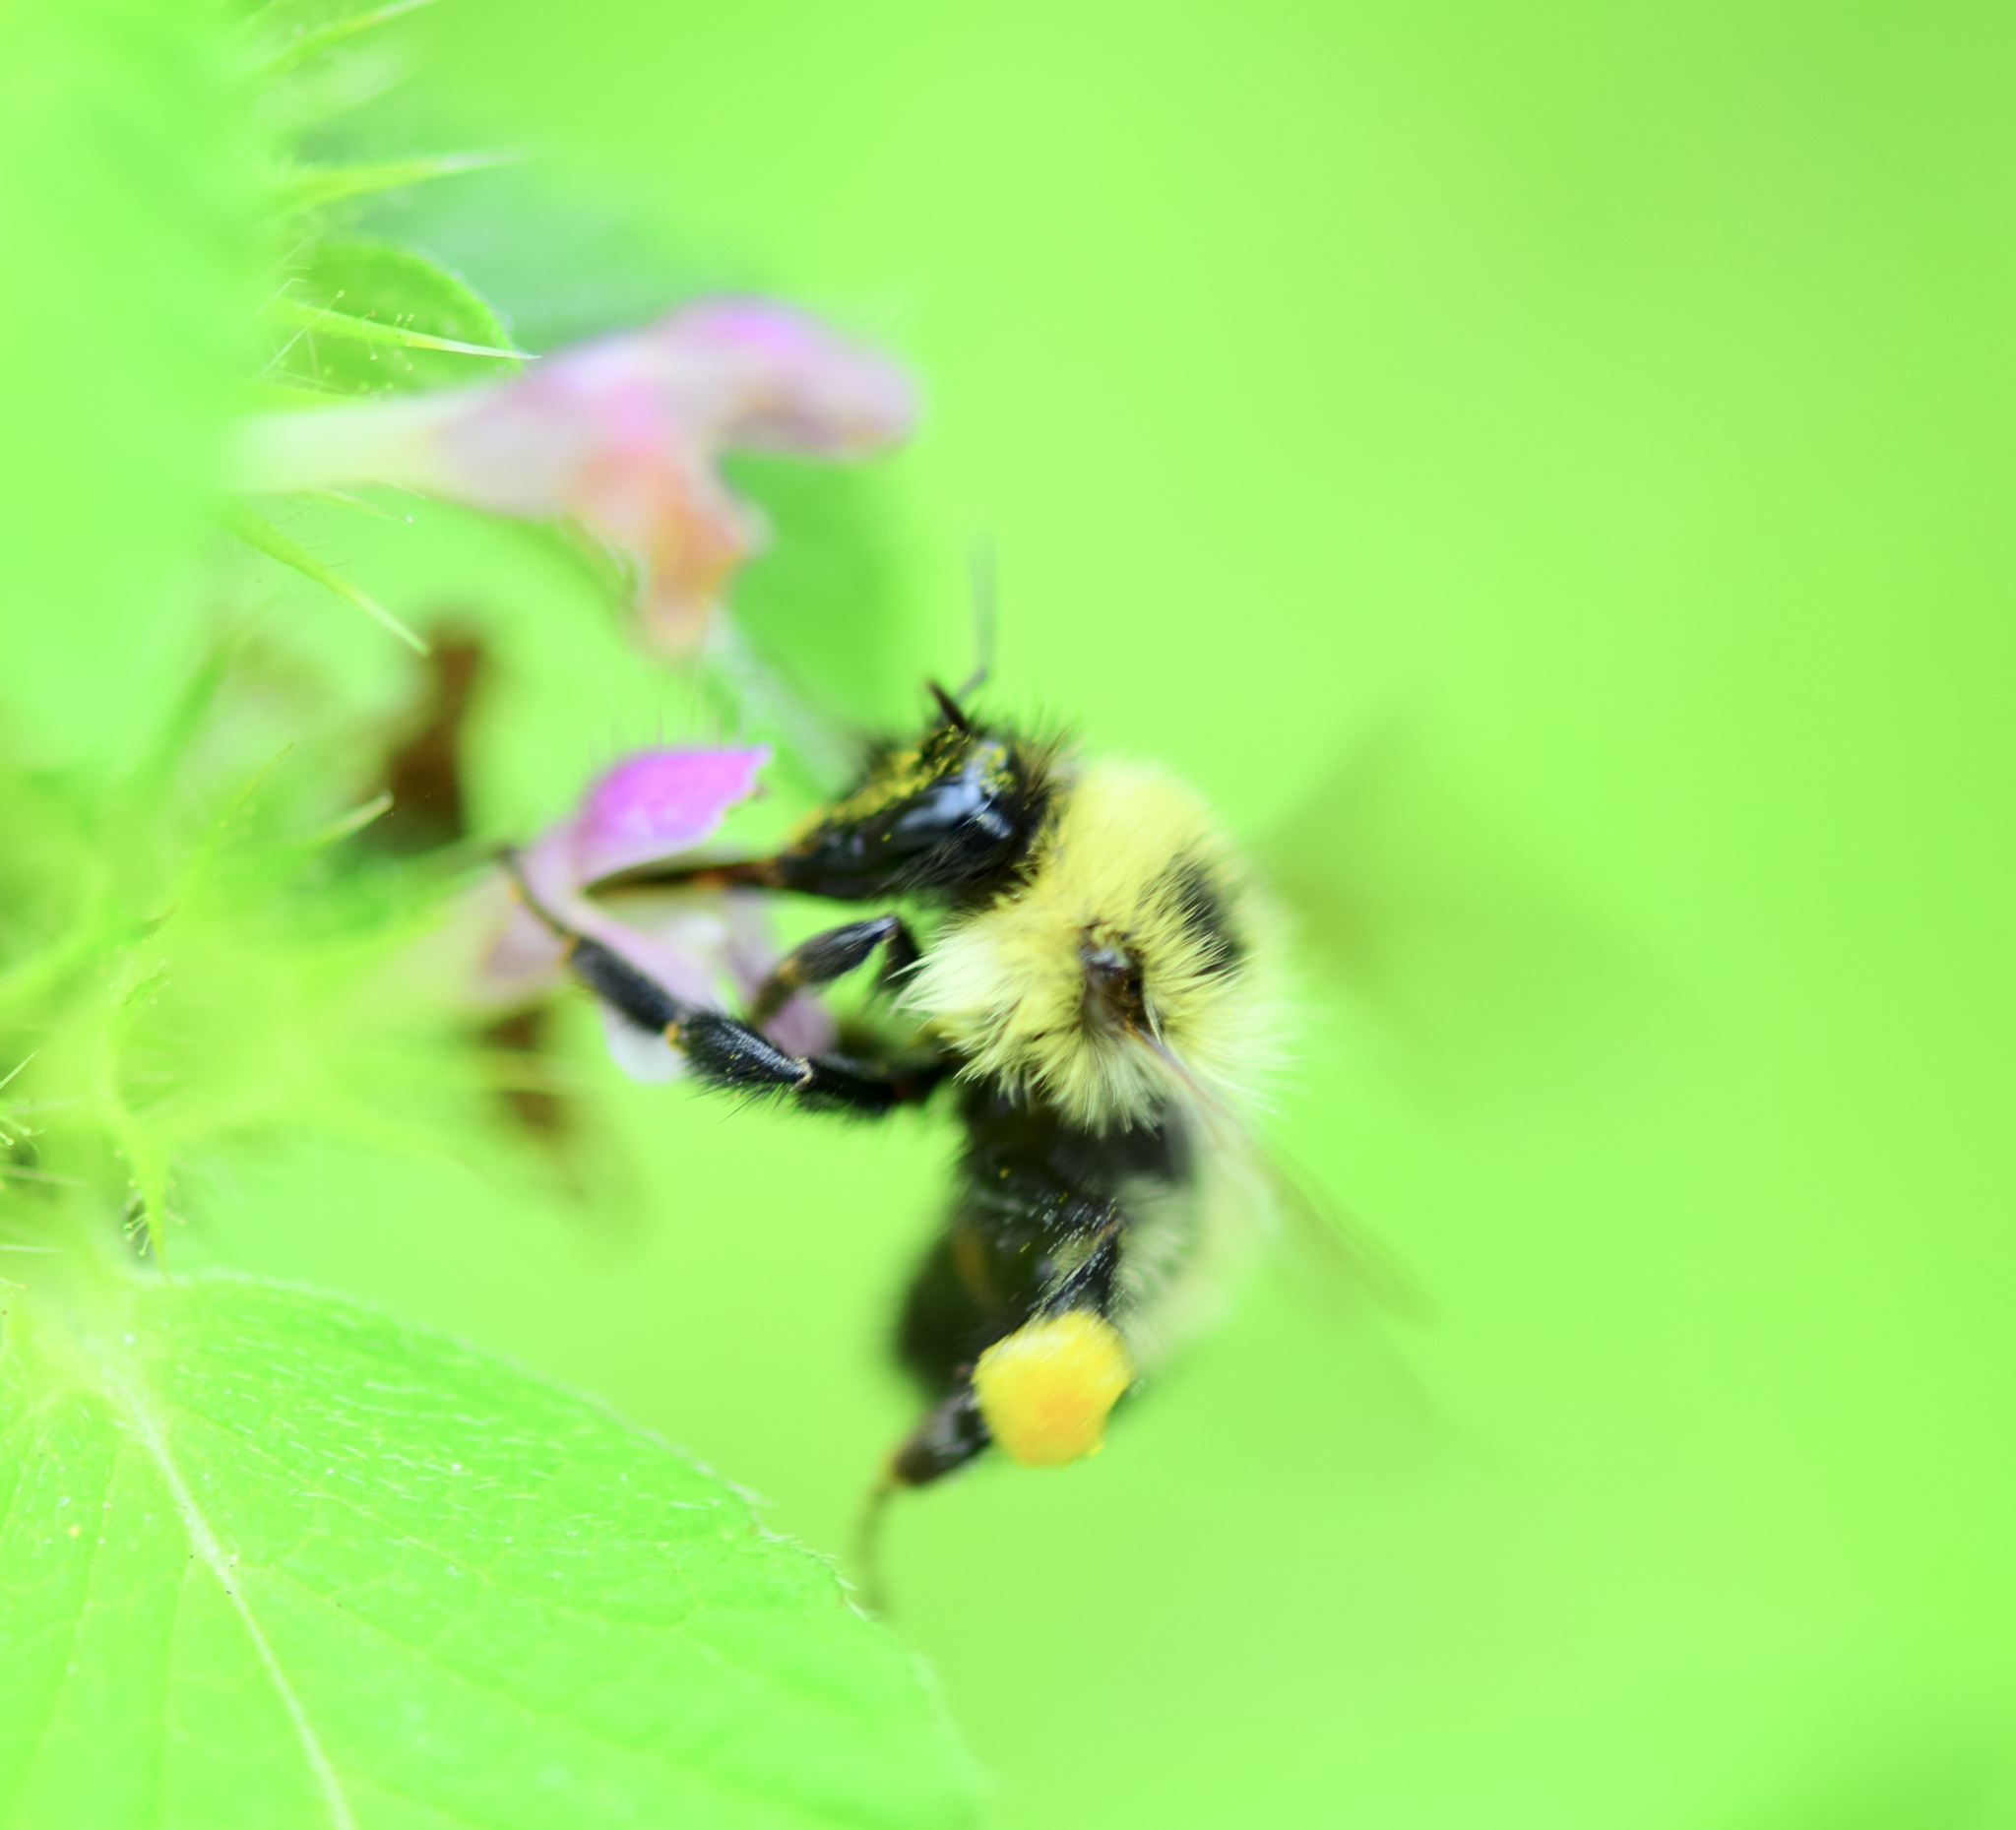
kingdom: Animalia
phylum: Arthropoda
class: Insecta
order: Hymenoptera
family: Apidae
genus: Bombus
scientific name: Bombus vagans
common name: Half-black bumble bee
